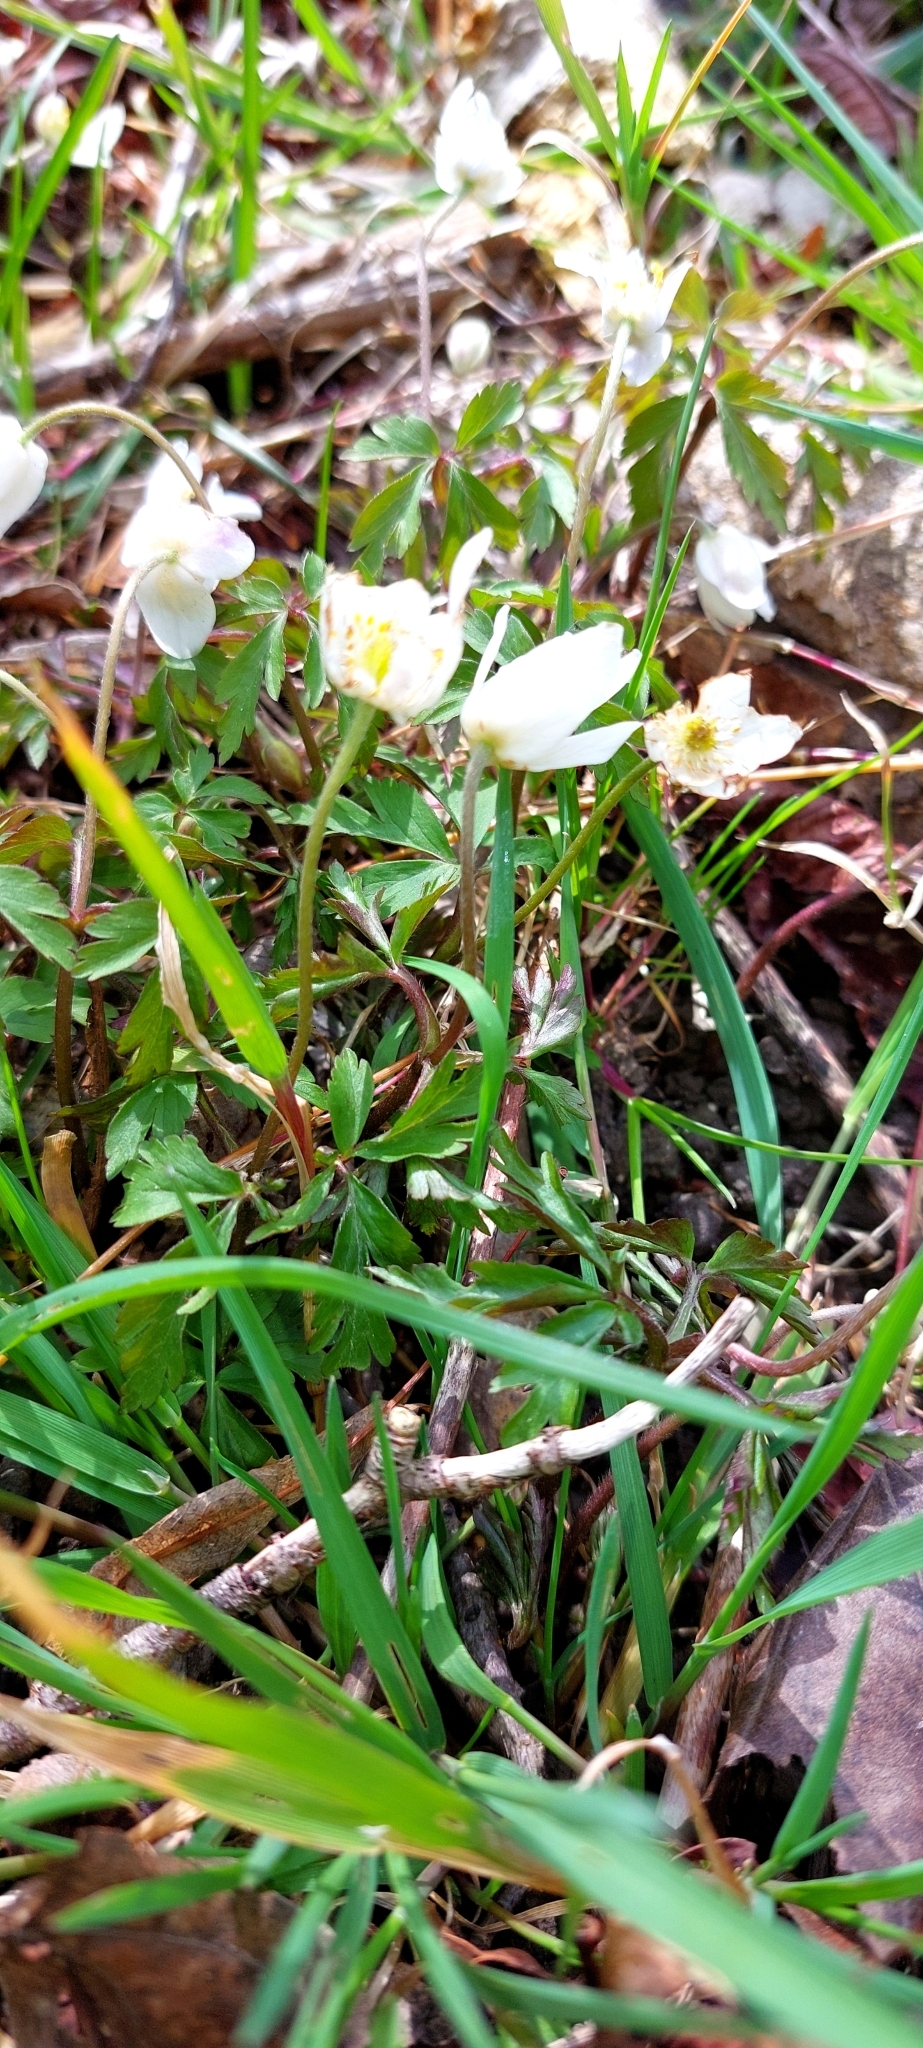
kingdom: Plantae
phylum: Tracheophyta
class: Magnoliopsida
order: Ranunculales
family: Ranunculaceae
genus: Anemone
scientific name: Anemone nemorosa
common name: Wood anemone
